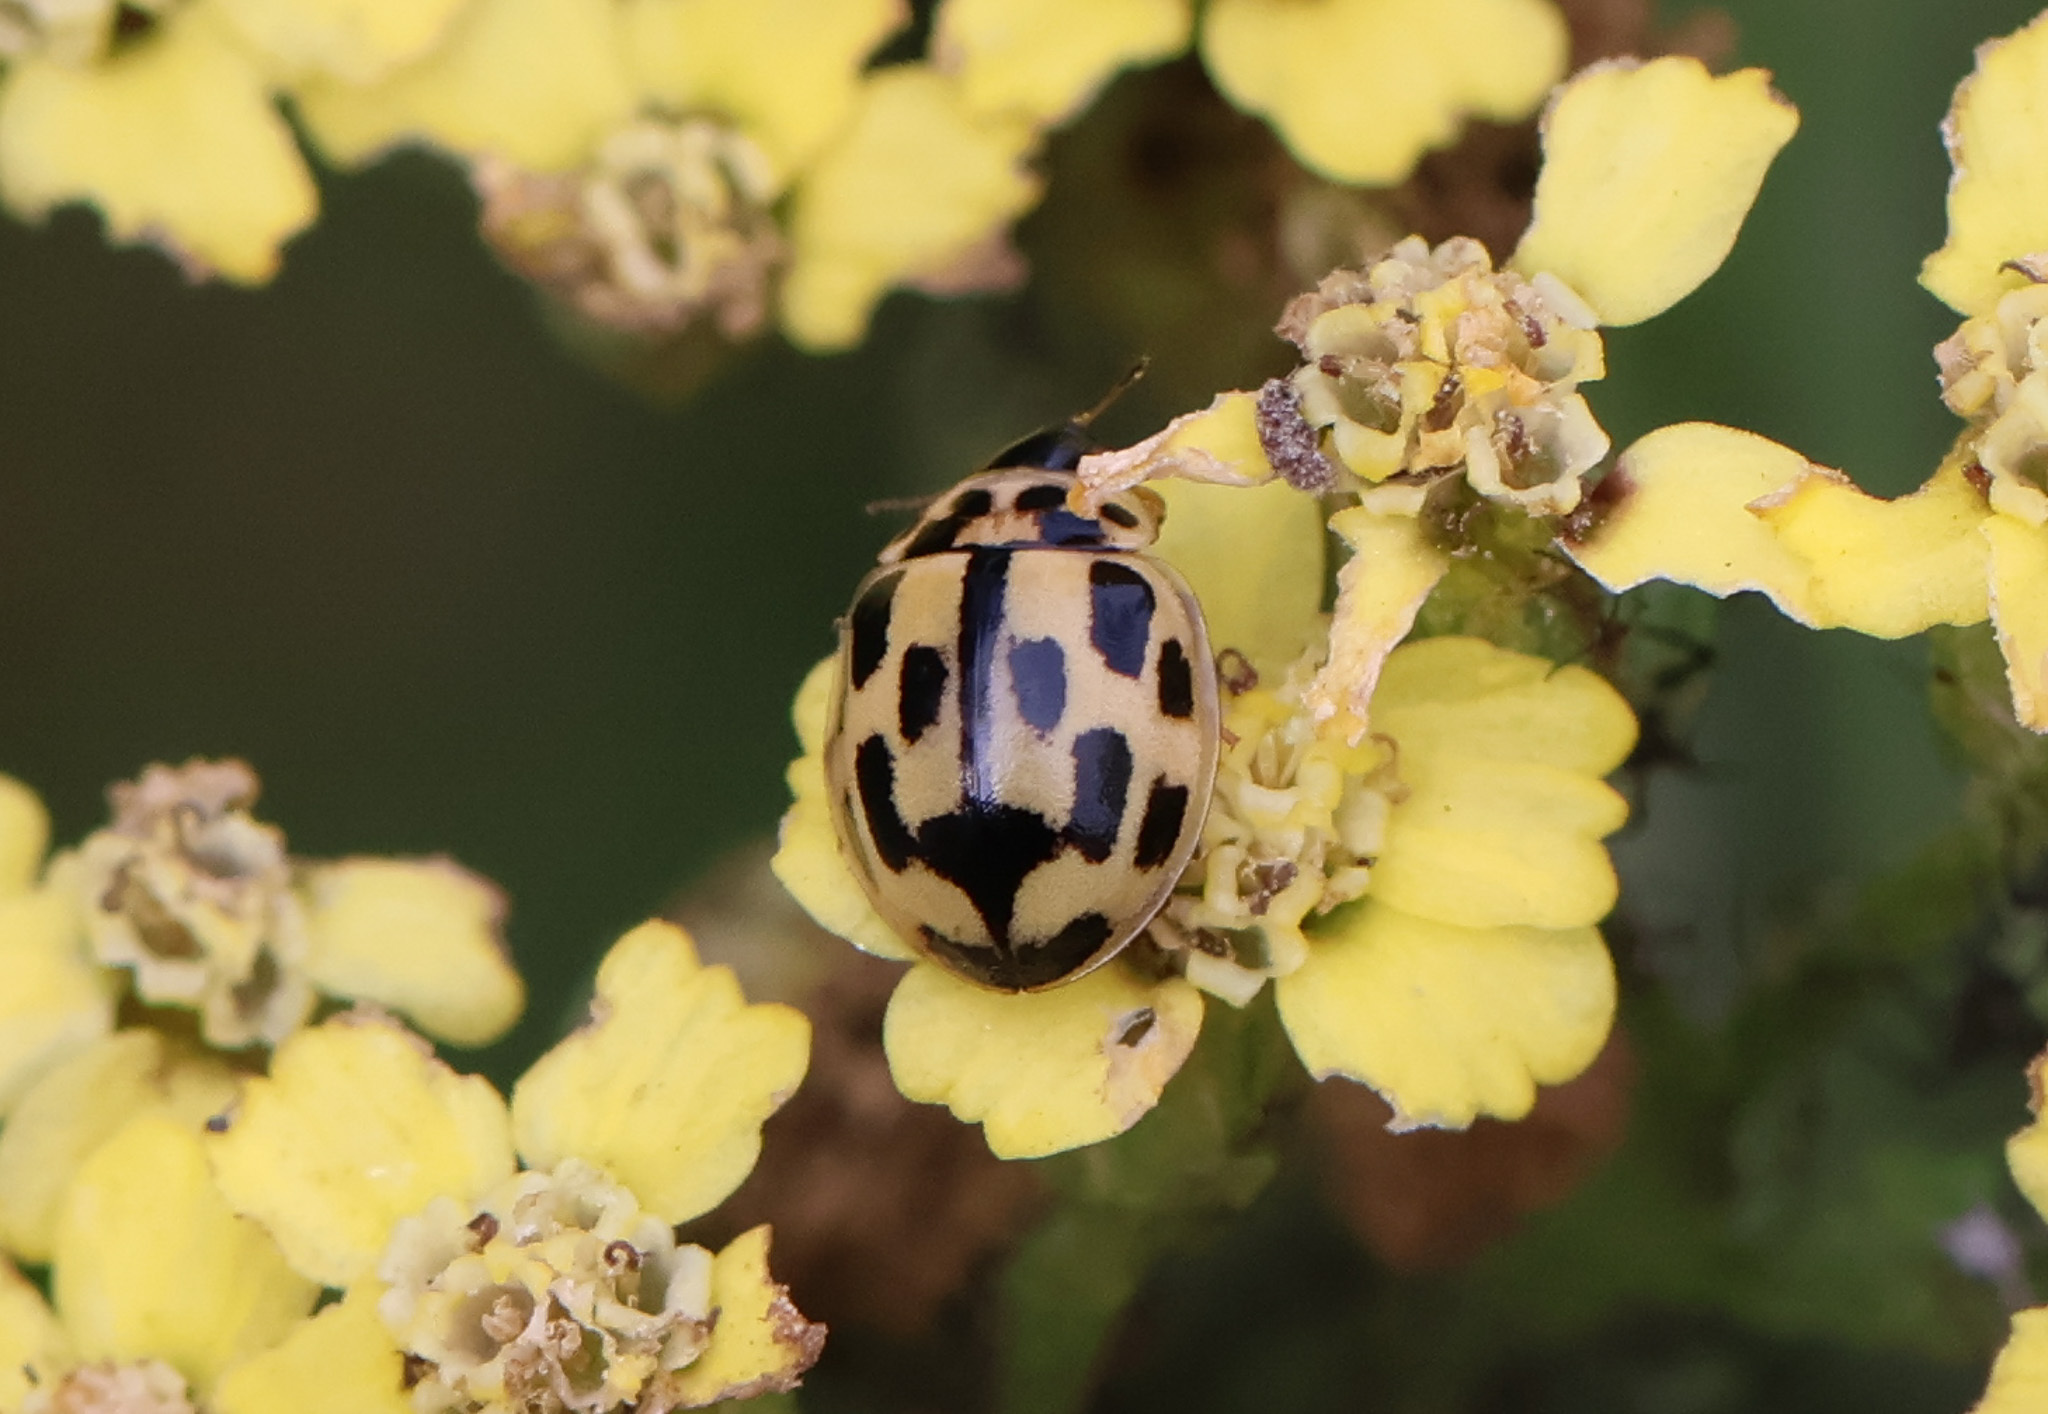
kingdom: Animalia
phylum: Arthropoda
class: Insecta
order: Coleoptera
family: Coccinellidae
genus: Propylaea
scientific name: Propylaea quatuordecimpunctata
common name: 14-spotted ladybird beetle
